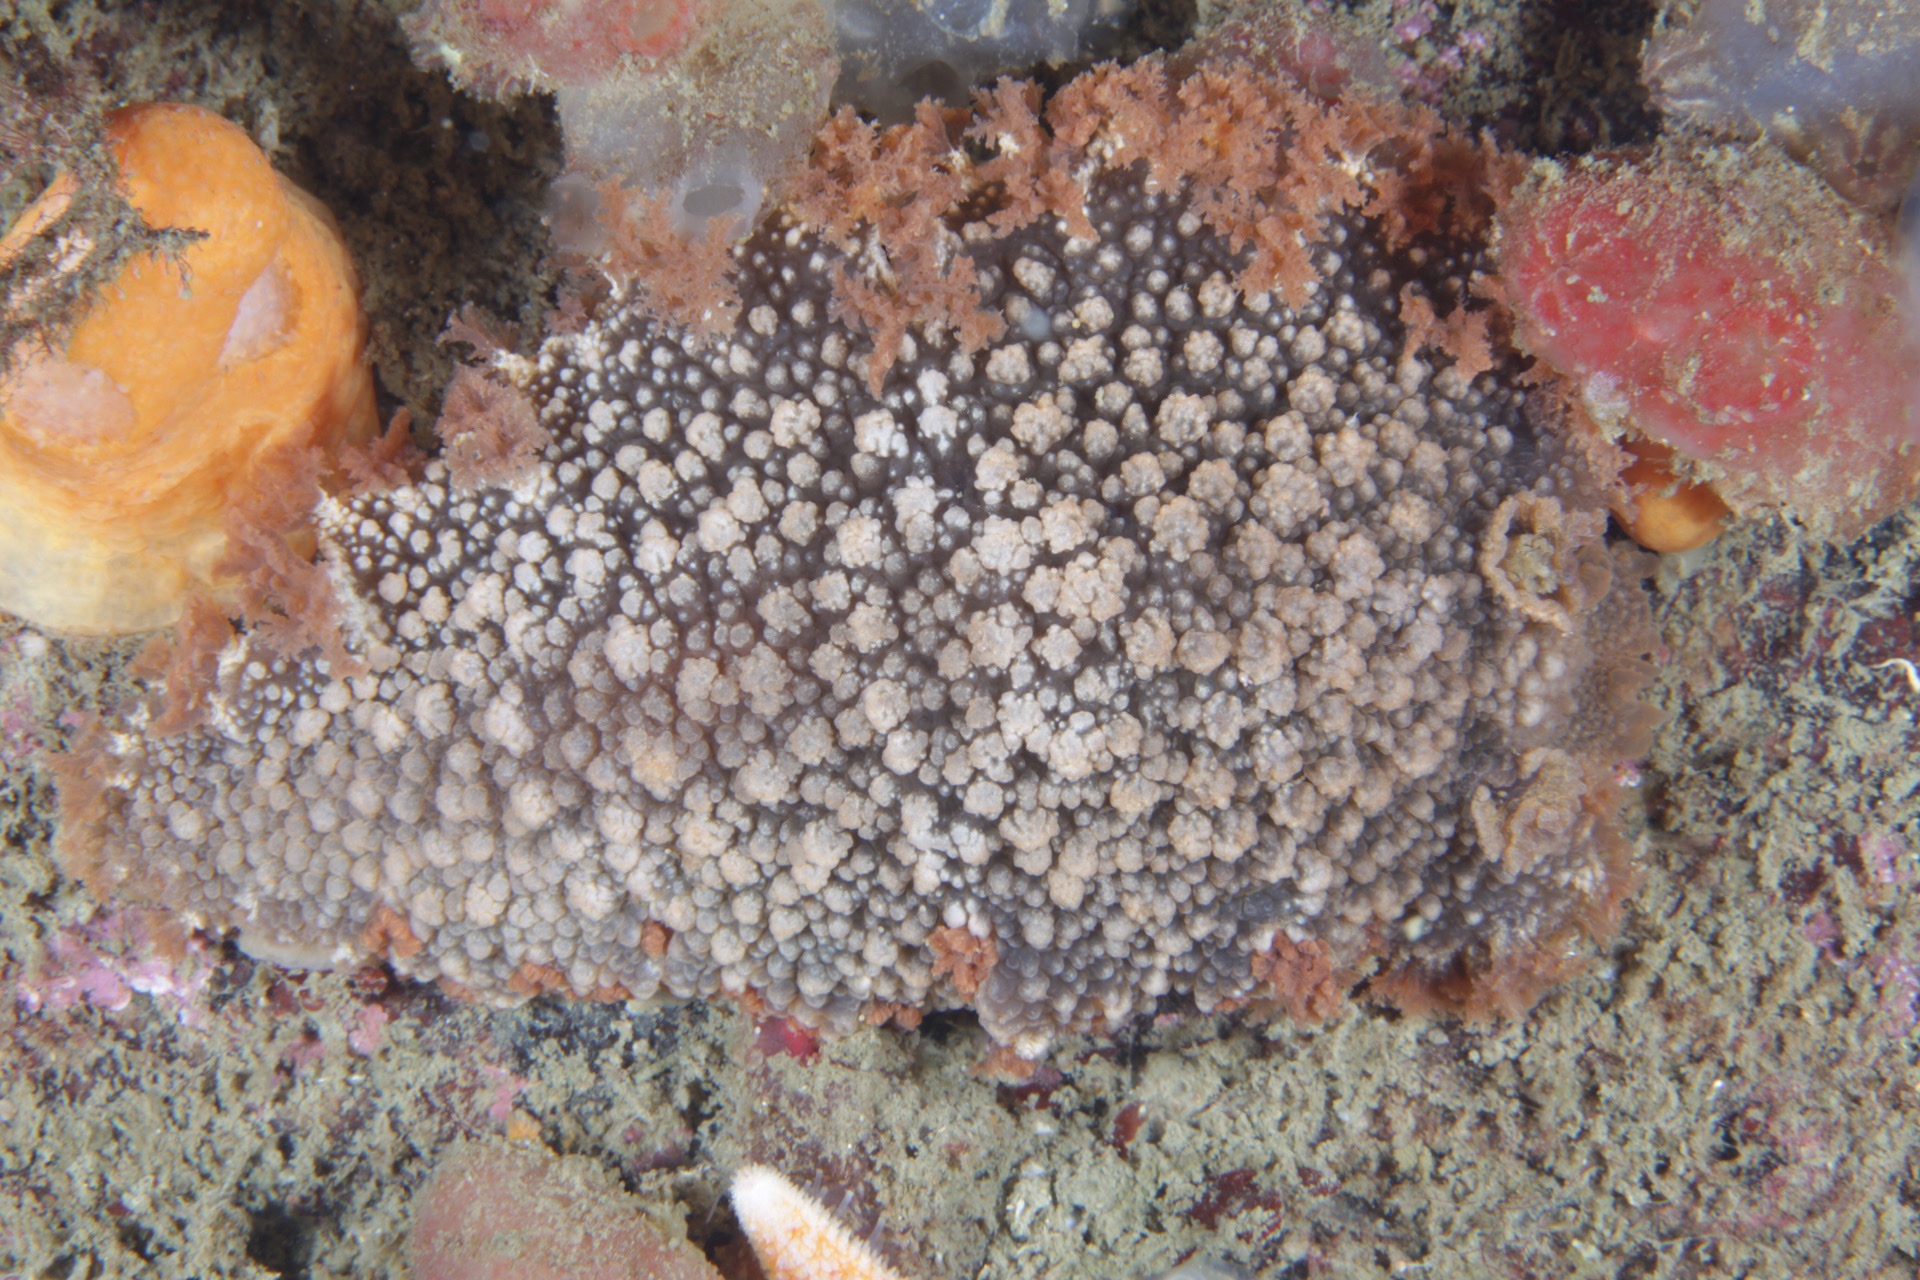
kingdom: Animalia
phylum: Mollusca
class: Gastropoda
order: Nudibranchia
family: Tritoniidae
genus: Tritonia
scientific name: Tritonia hombergii
